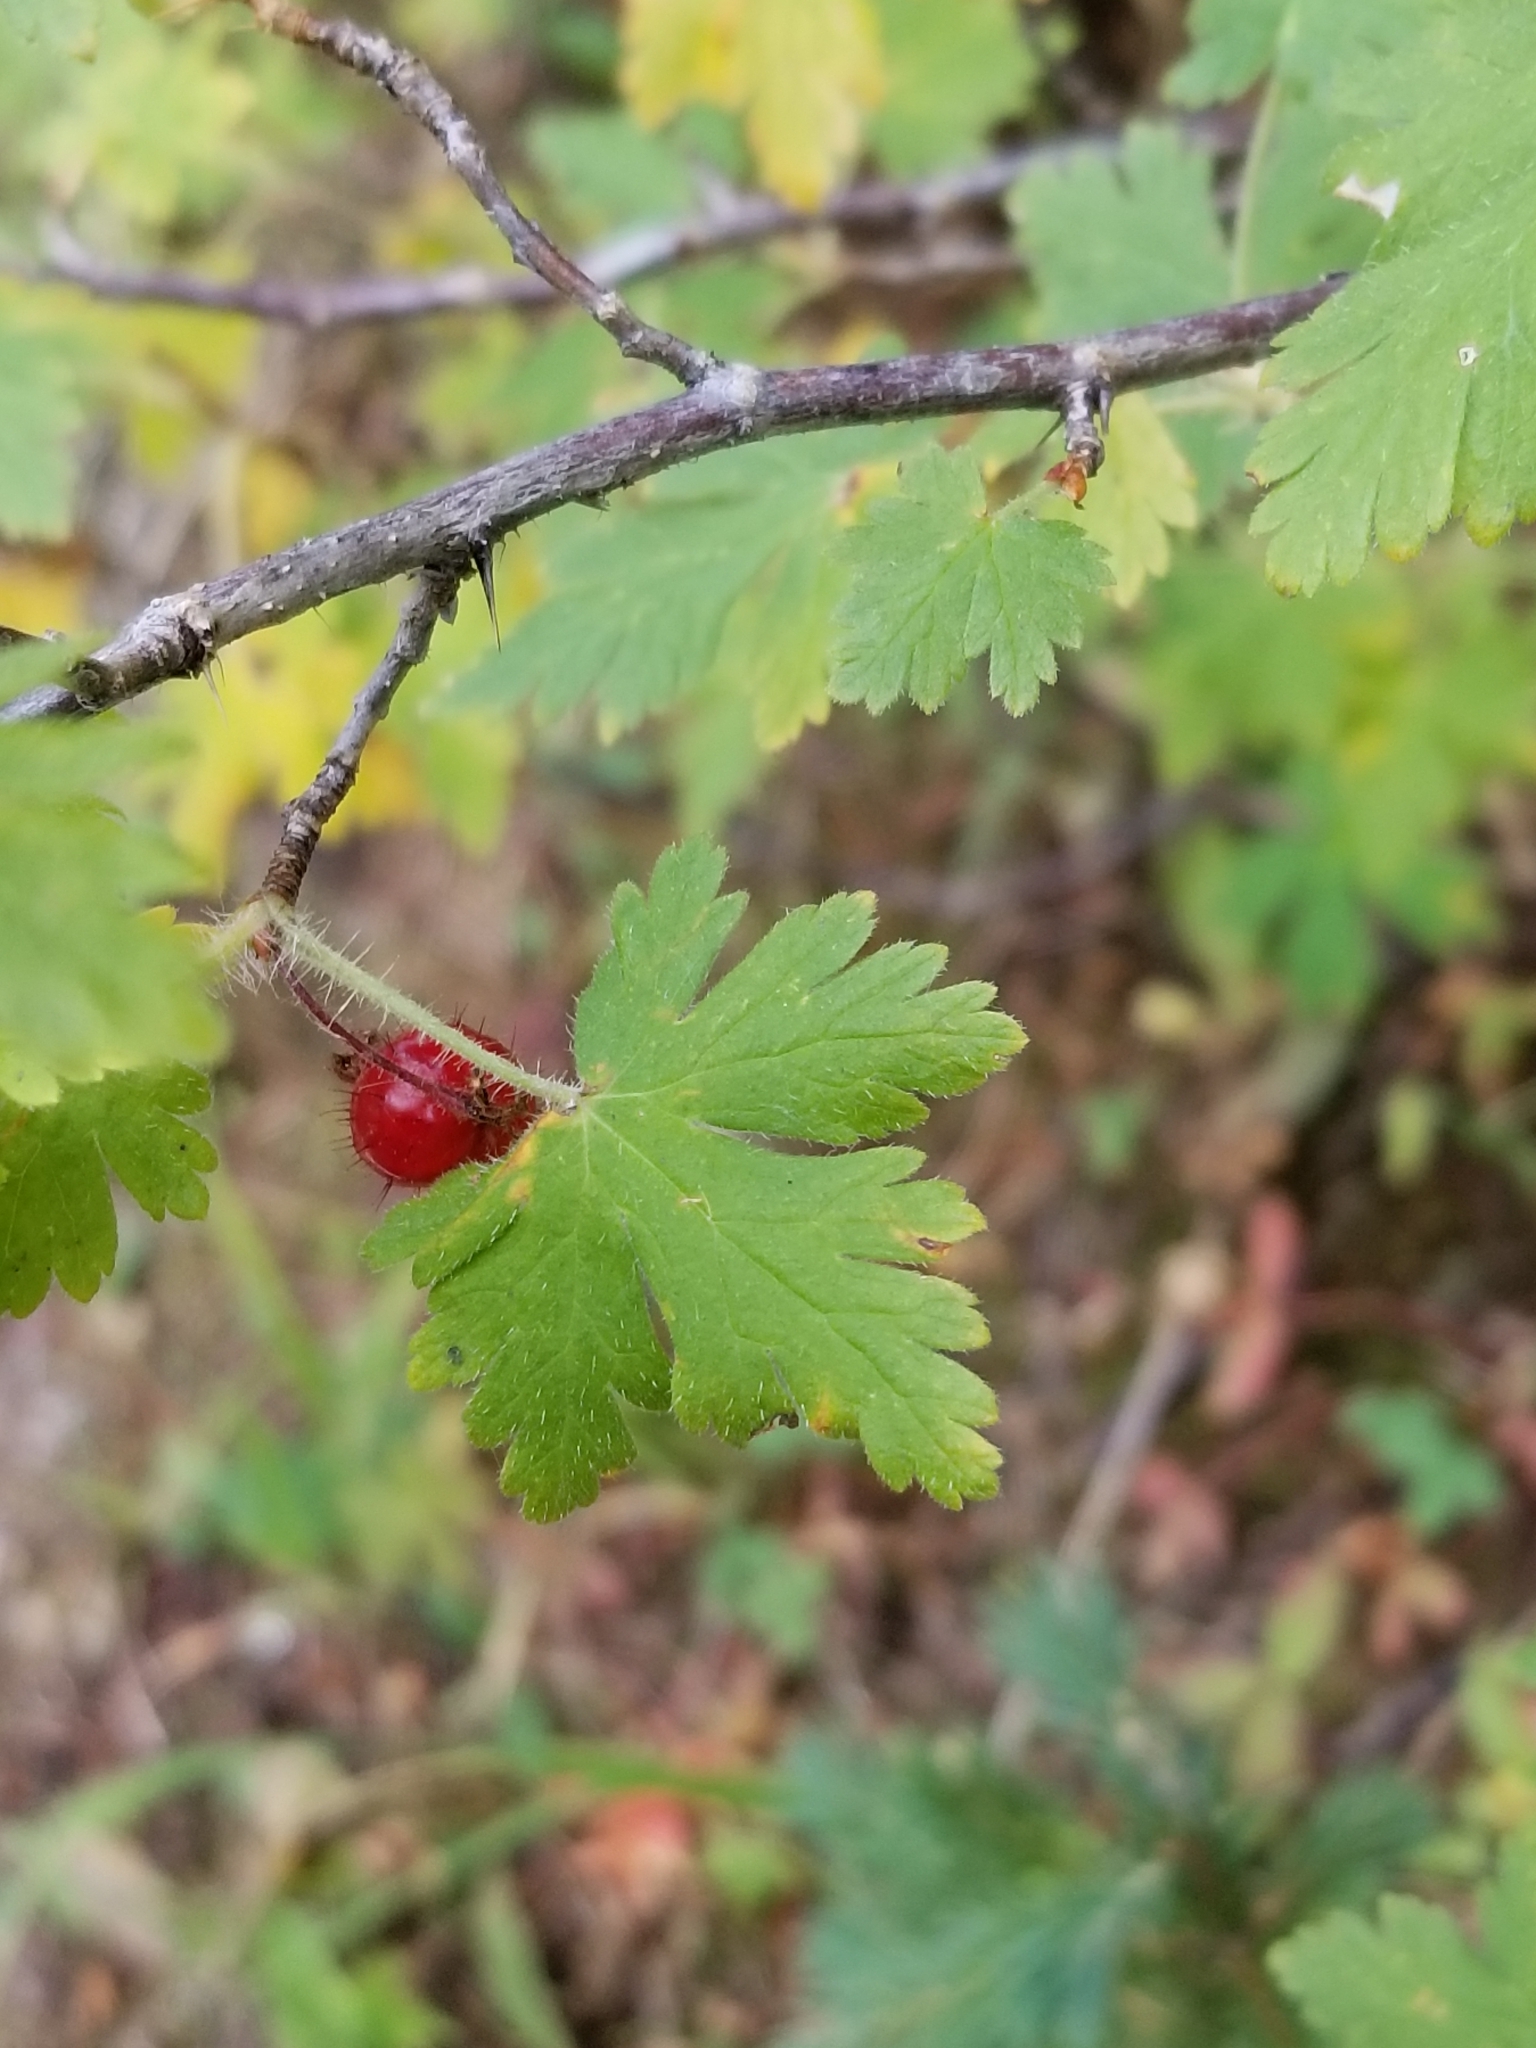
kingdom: Plantae
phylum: Tracheophyta
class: Magnoliopsida
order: Saxifragales
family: Grossulariaceae
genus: Ribes
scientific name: Ribes montigenum
